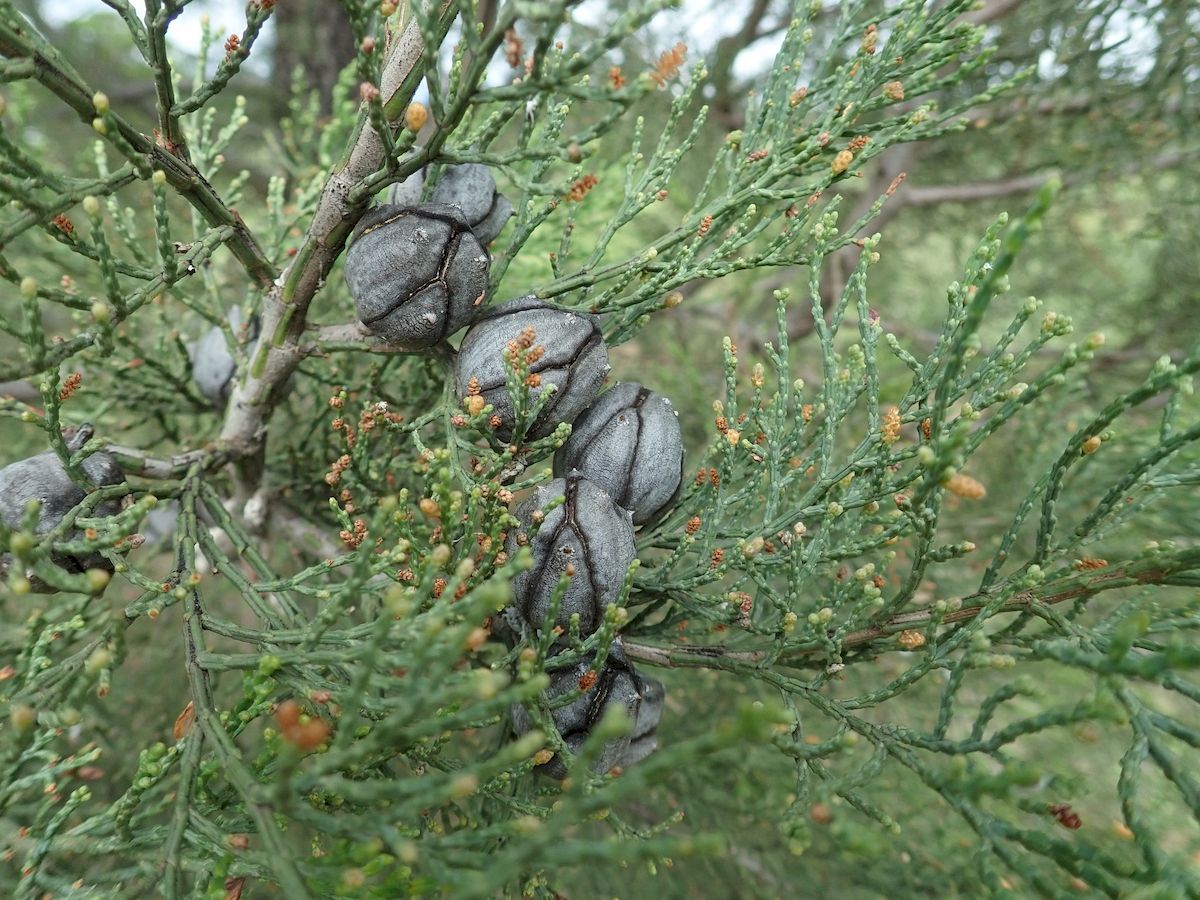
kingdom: Plantae
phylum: Tracheophyta
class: Pinopsida
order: Pinales
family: Cupressaceae
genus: Callitris
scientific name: Callitris endlicheri
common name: Black cypress-pine
